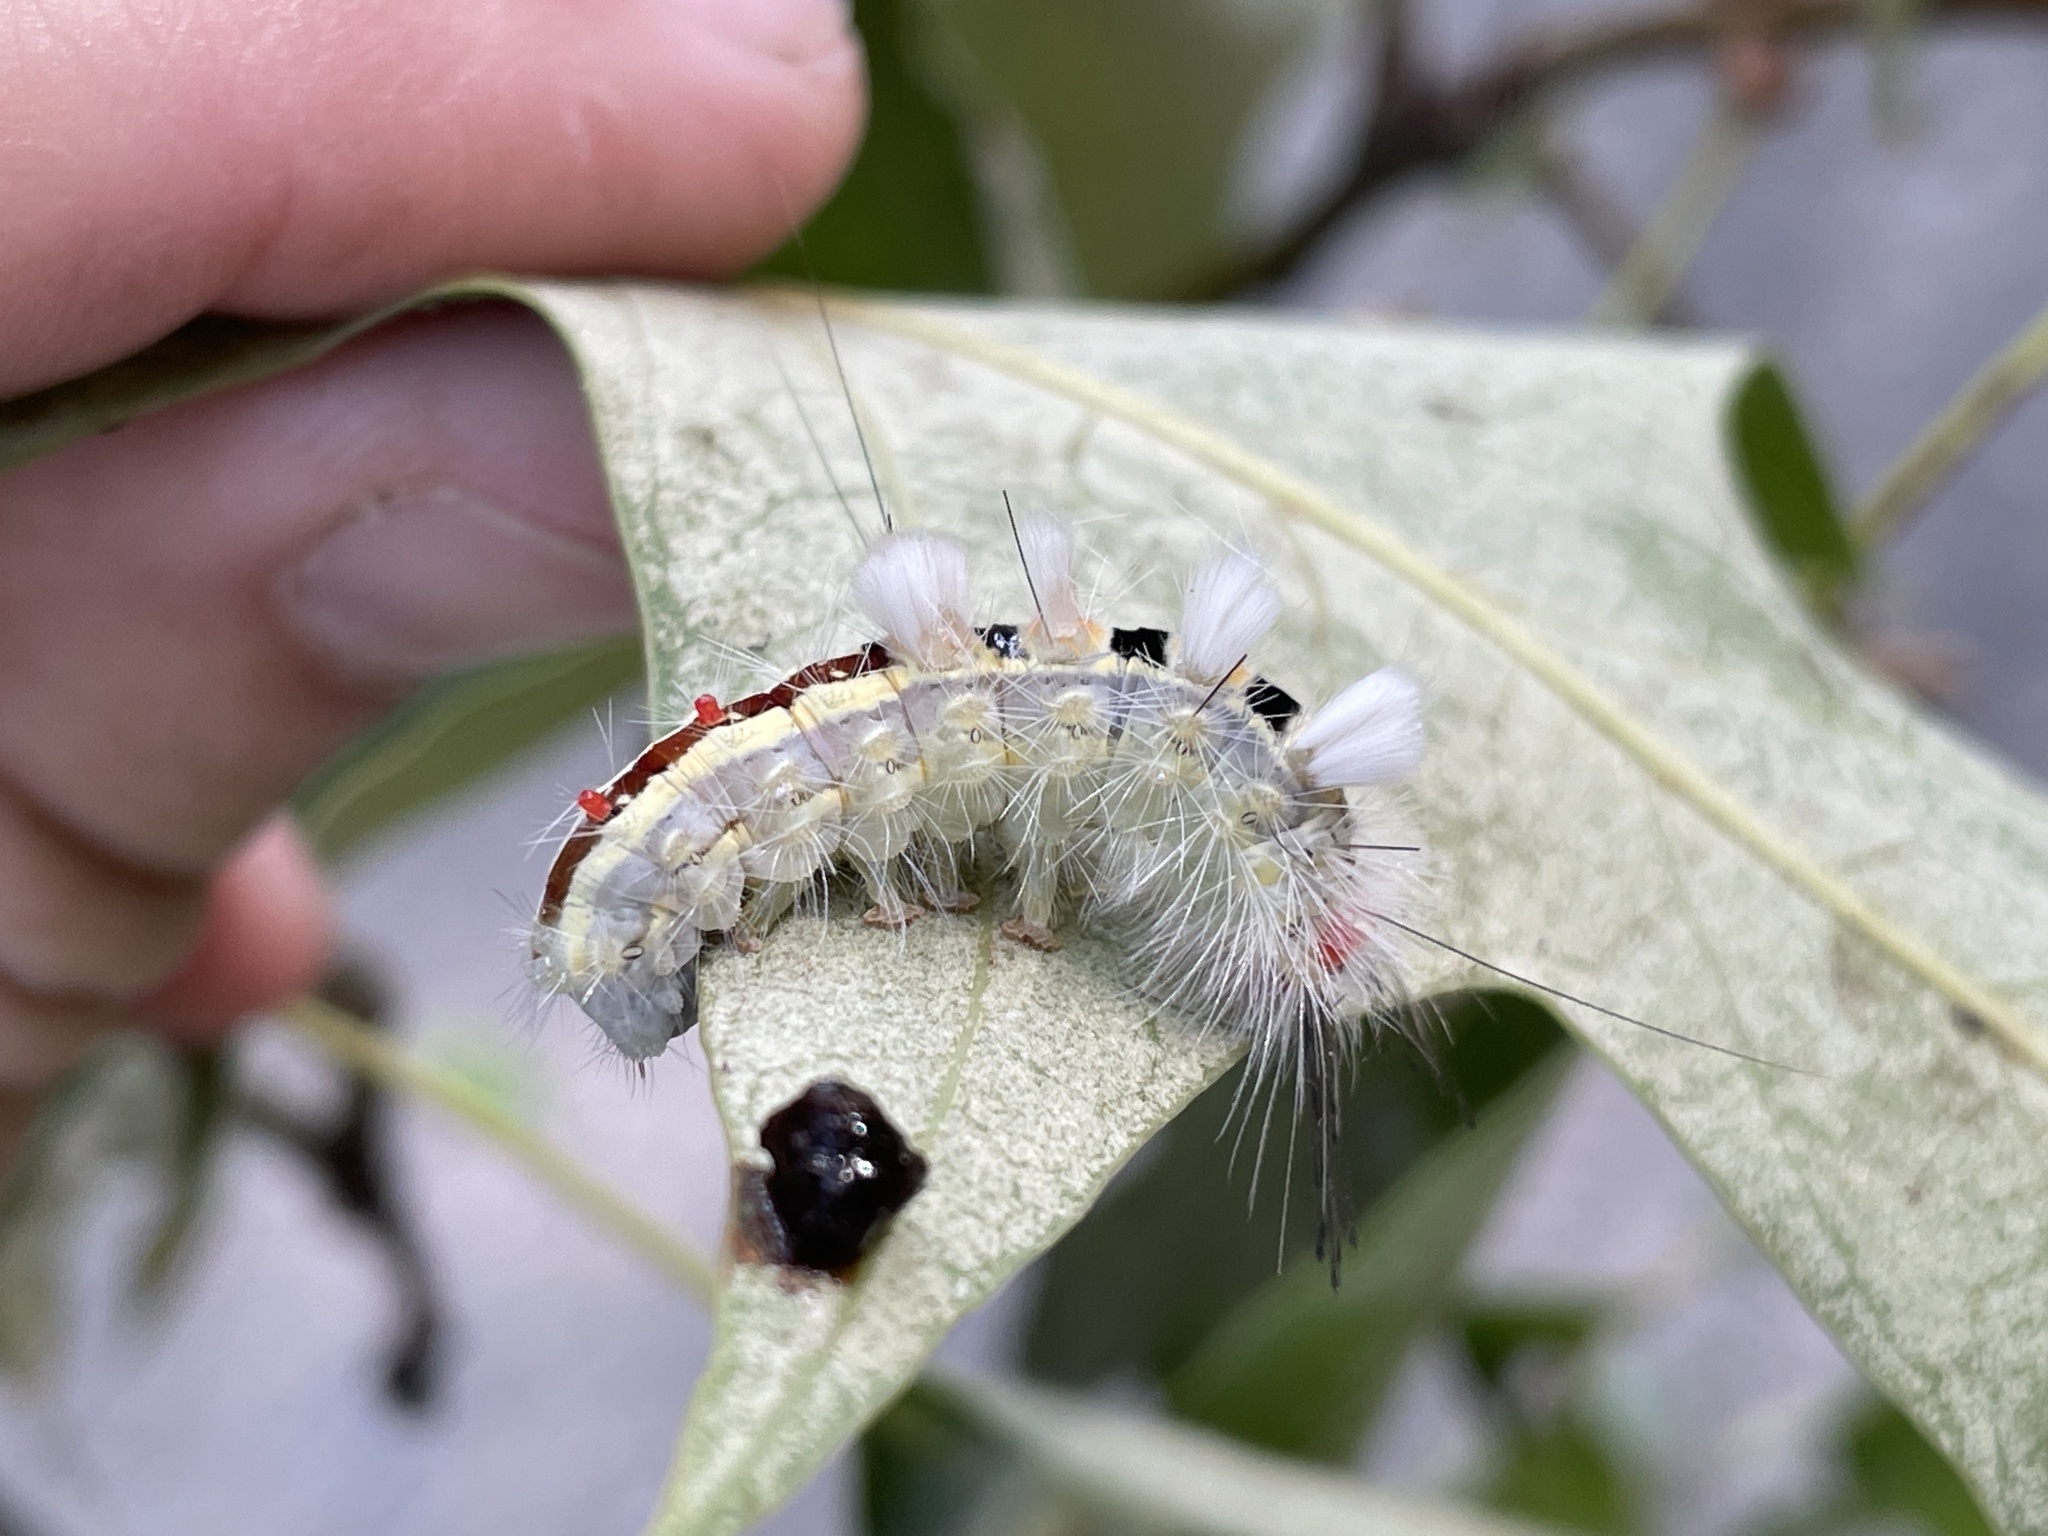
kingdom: Animalia
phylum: Arthropoda
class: Insecta
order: Lepidoptera
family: Erebidae
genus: Orgyia
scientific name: Orgyia leucostigma
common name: White-marked tussock moth
